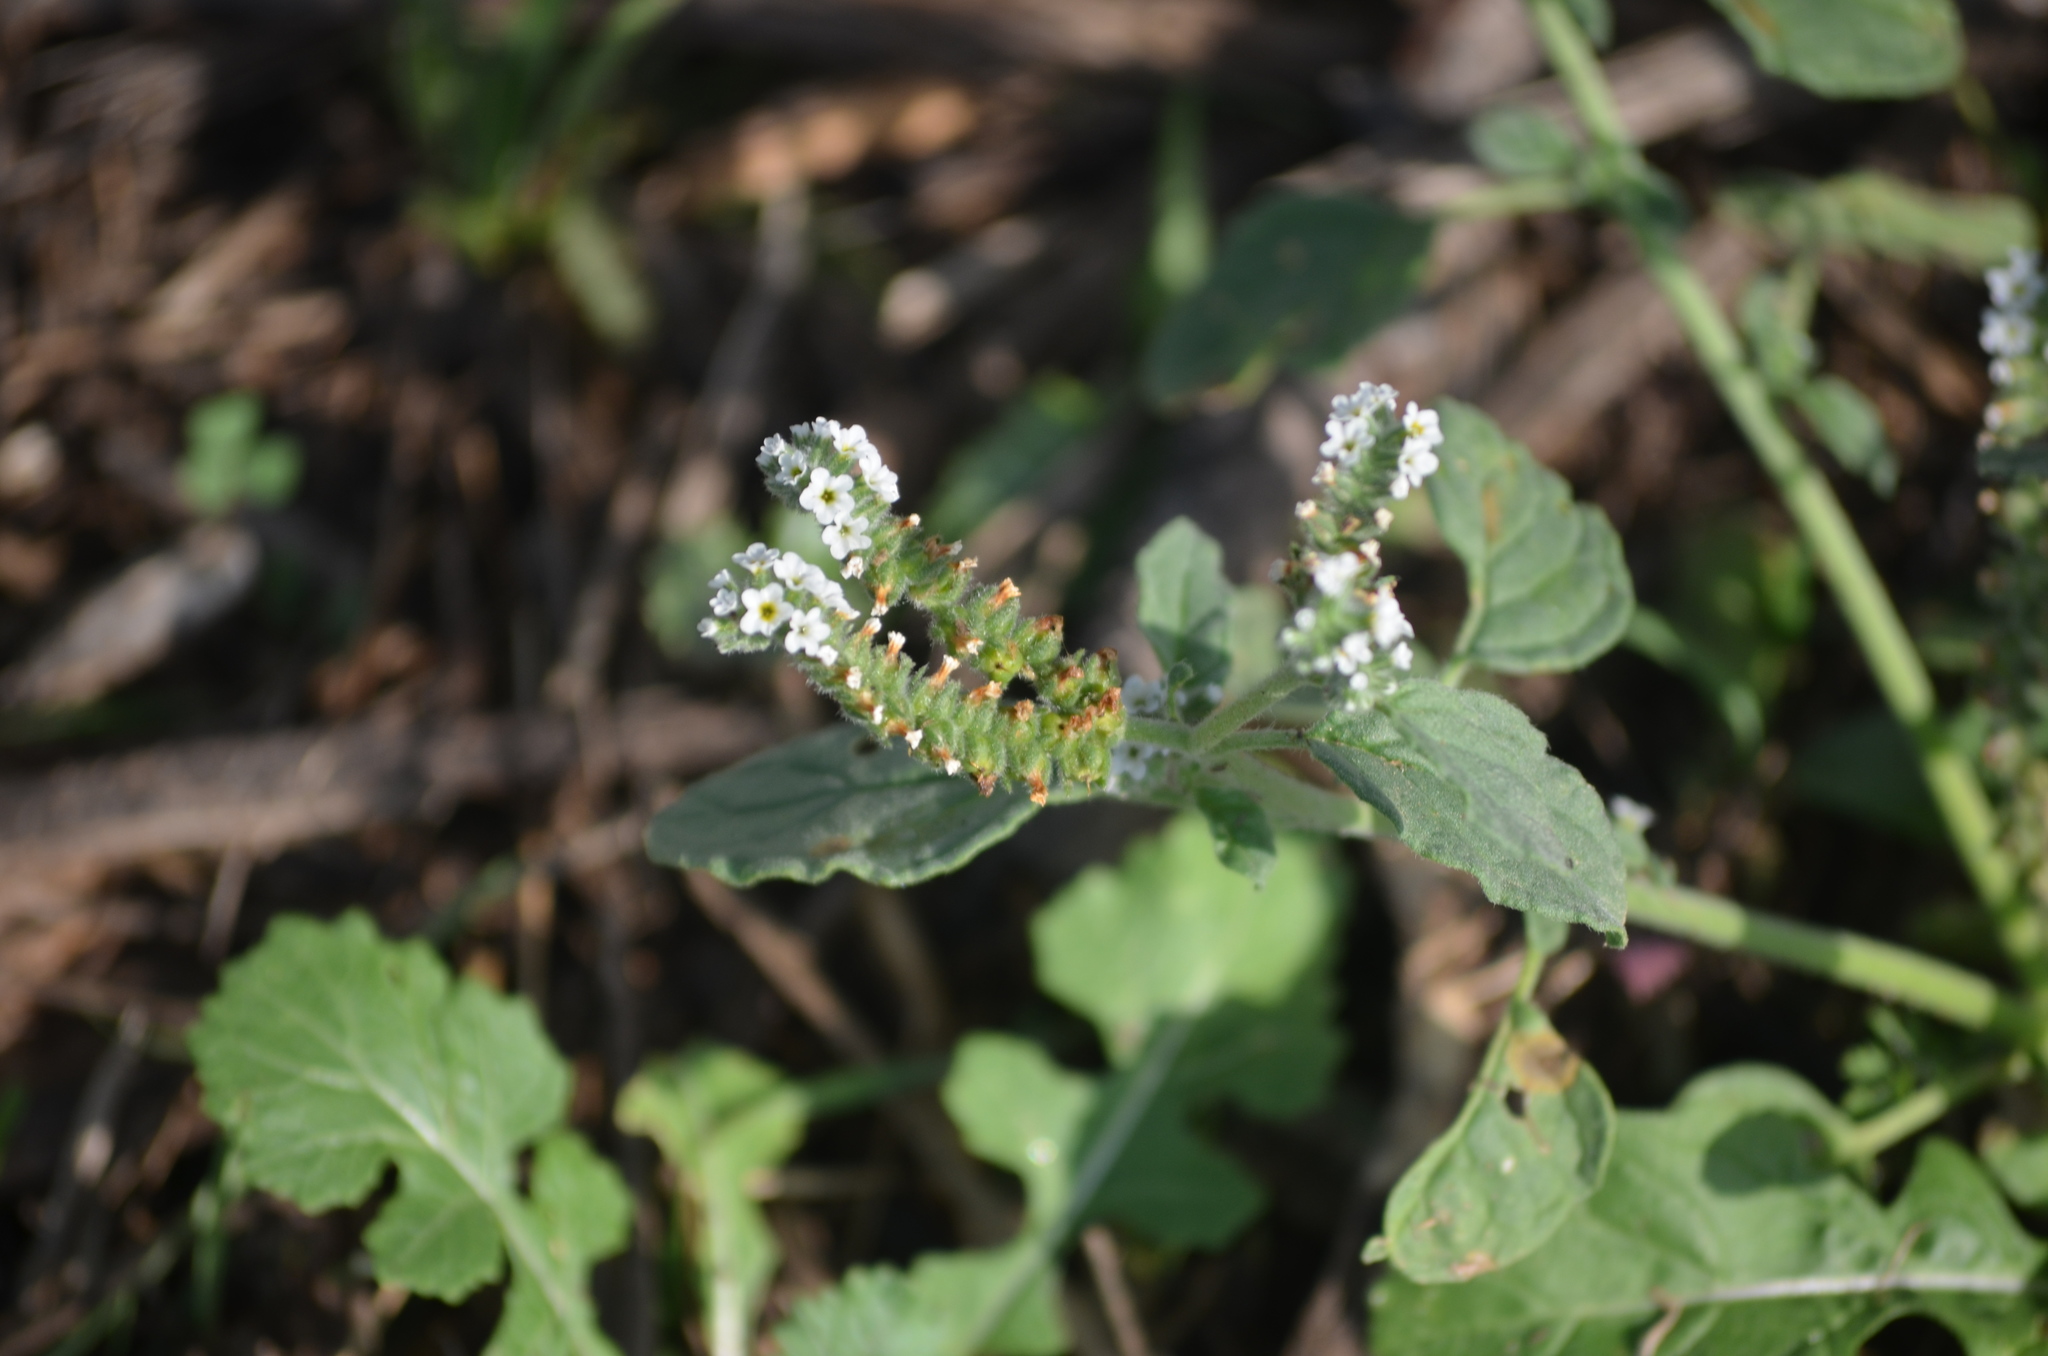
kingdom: Plantae
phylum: Tracheophyta
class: Magnoliopsida
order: Boraginales
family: Heliotropiaceae
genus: Heliotropium
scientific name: Heliotropium europaeum
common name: European heliotrope
